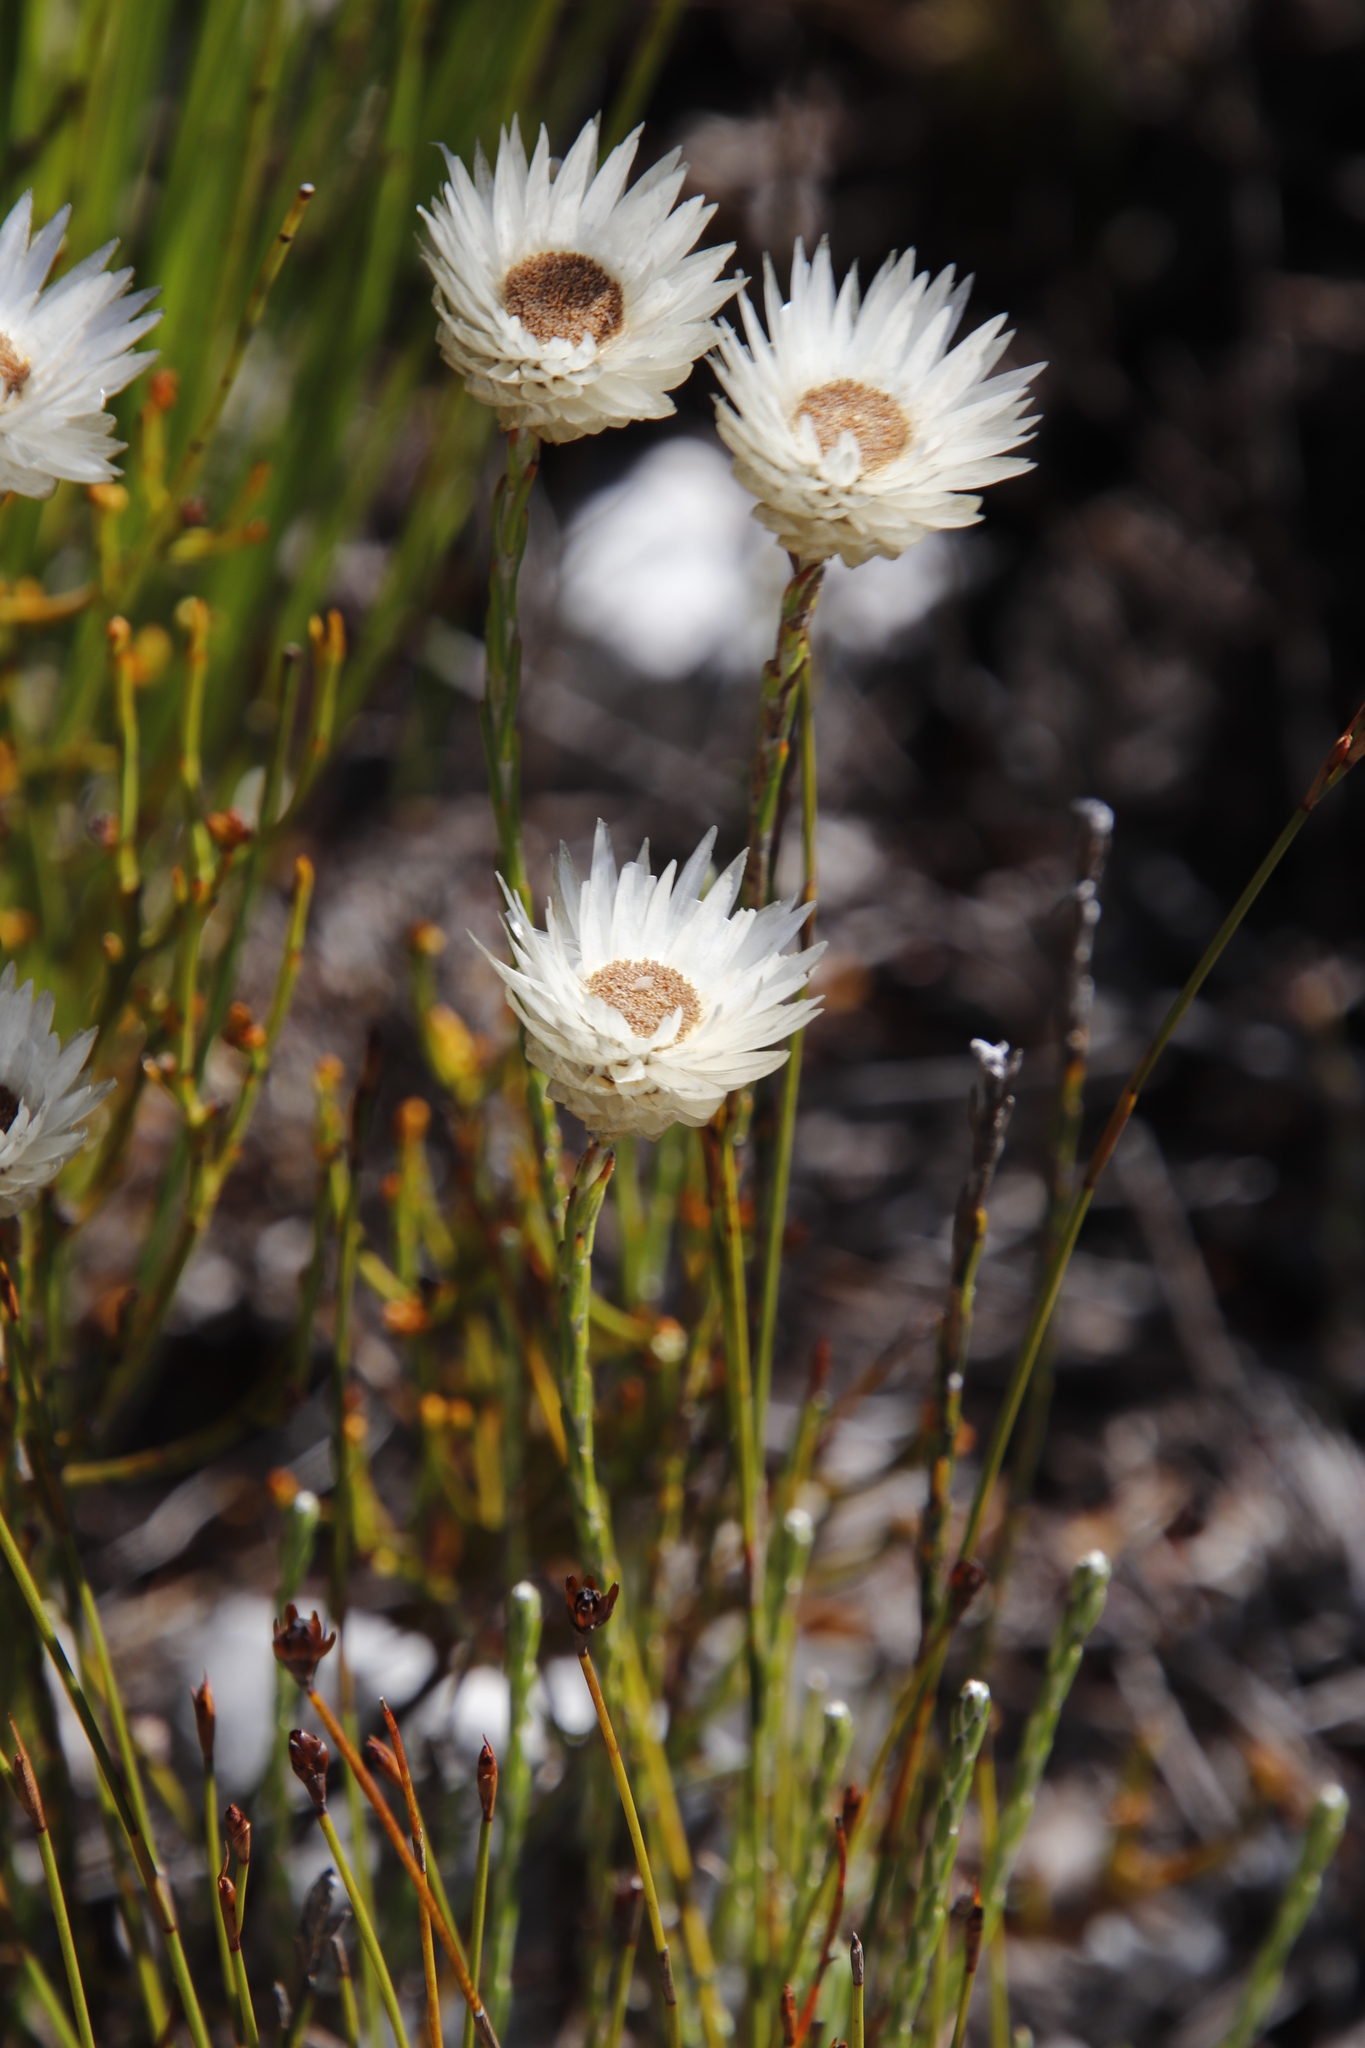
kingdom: Plantae
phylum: Tracheophyta
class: Magnoliopsida
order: Asterales
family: Asteraceae
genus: Edmondia
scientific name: Edmondia sesamoides
